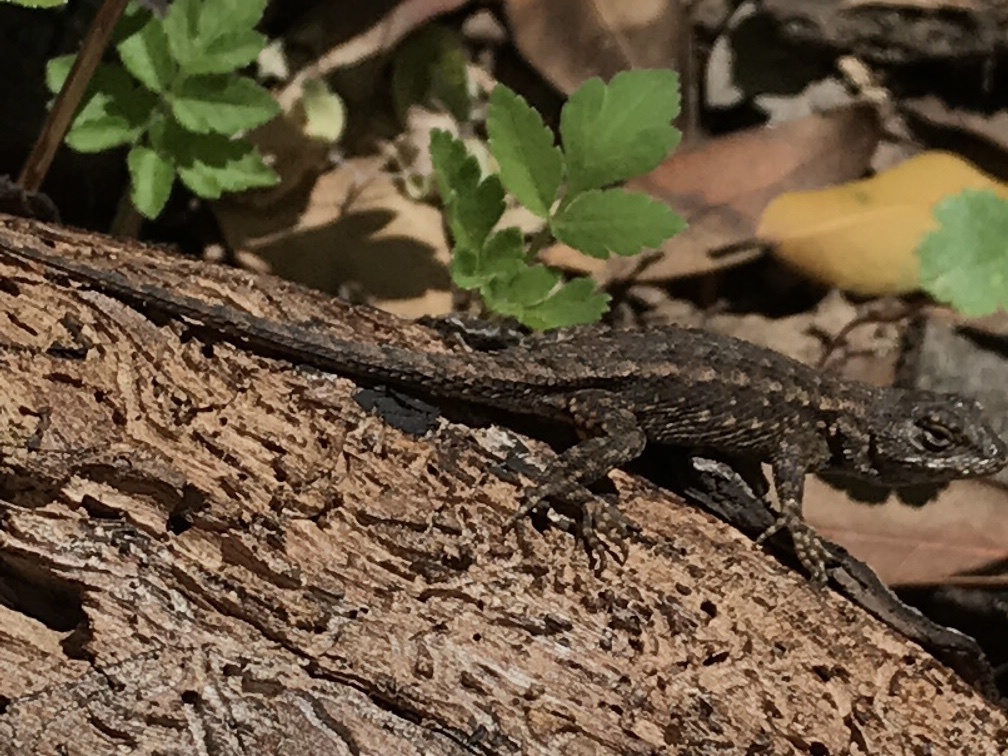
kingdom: Animalia
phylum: Chordata
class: Squamata
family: Phrynosomatidae
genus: Sceloporus
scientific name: Sceloporus occidentalis
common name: Western fence lizard
